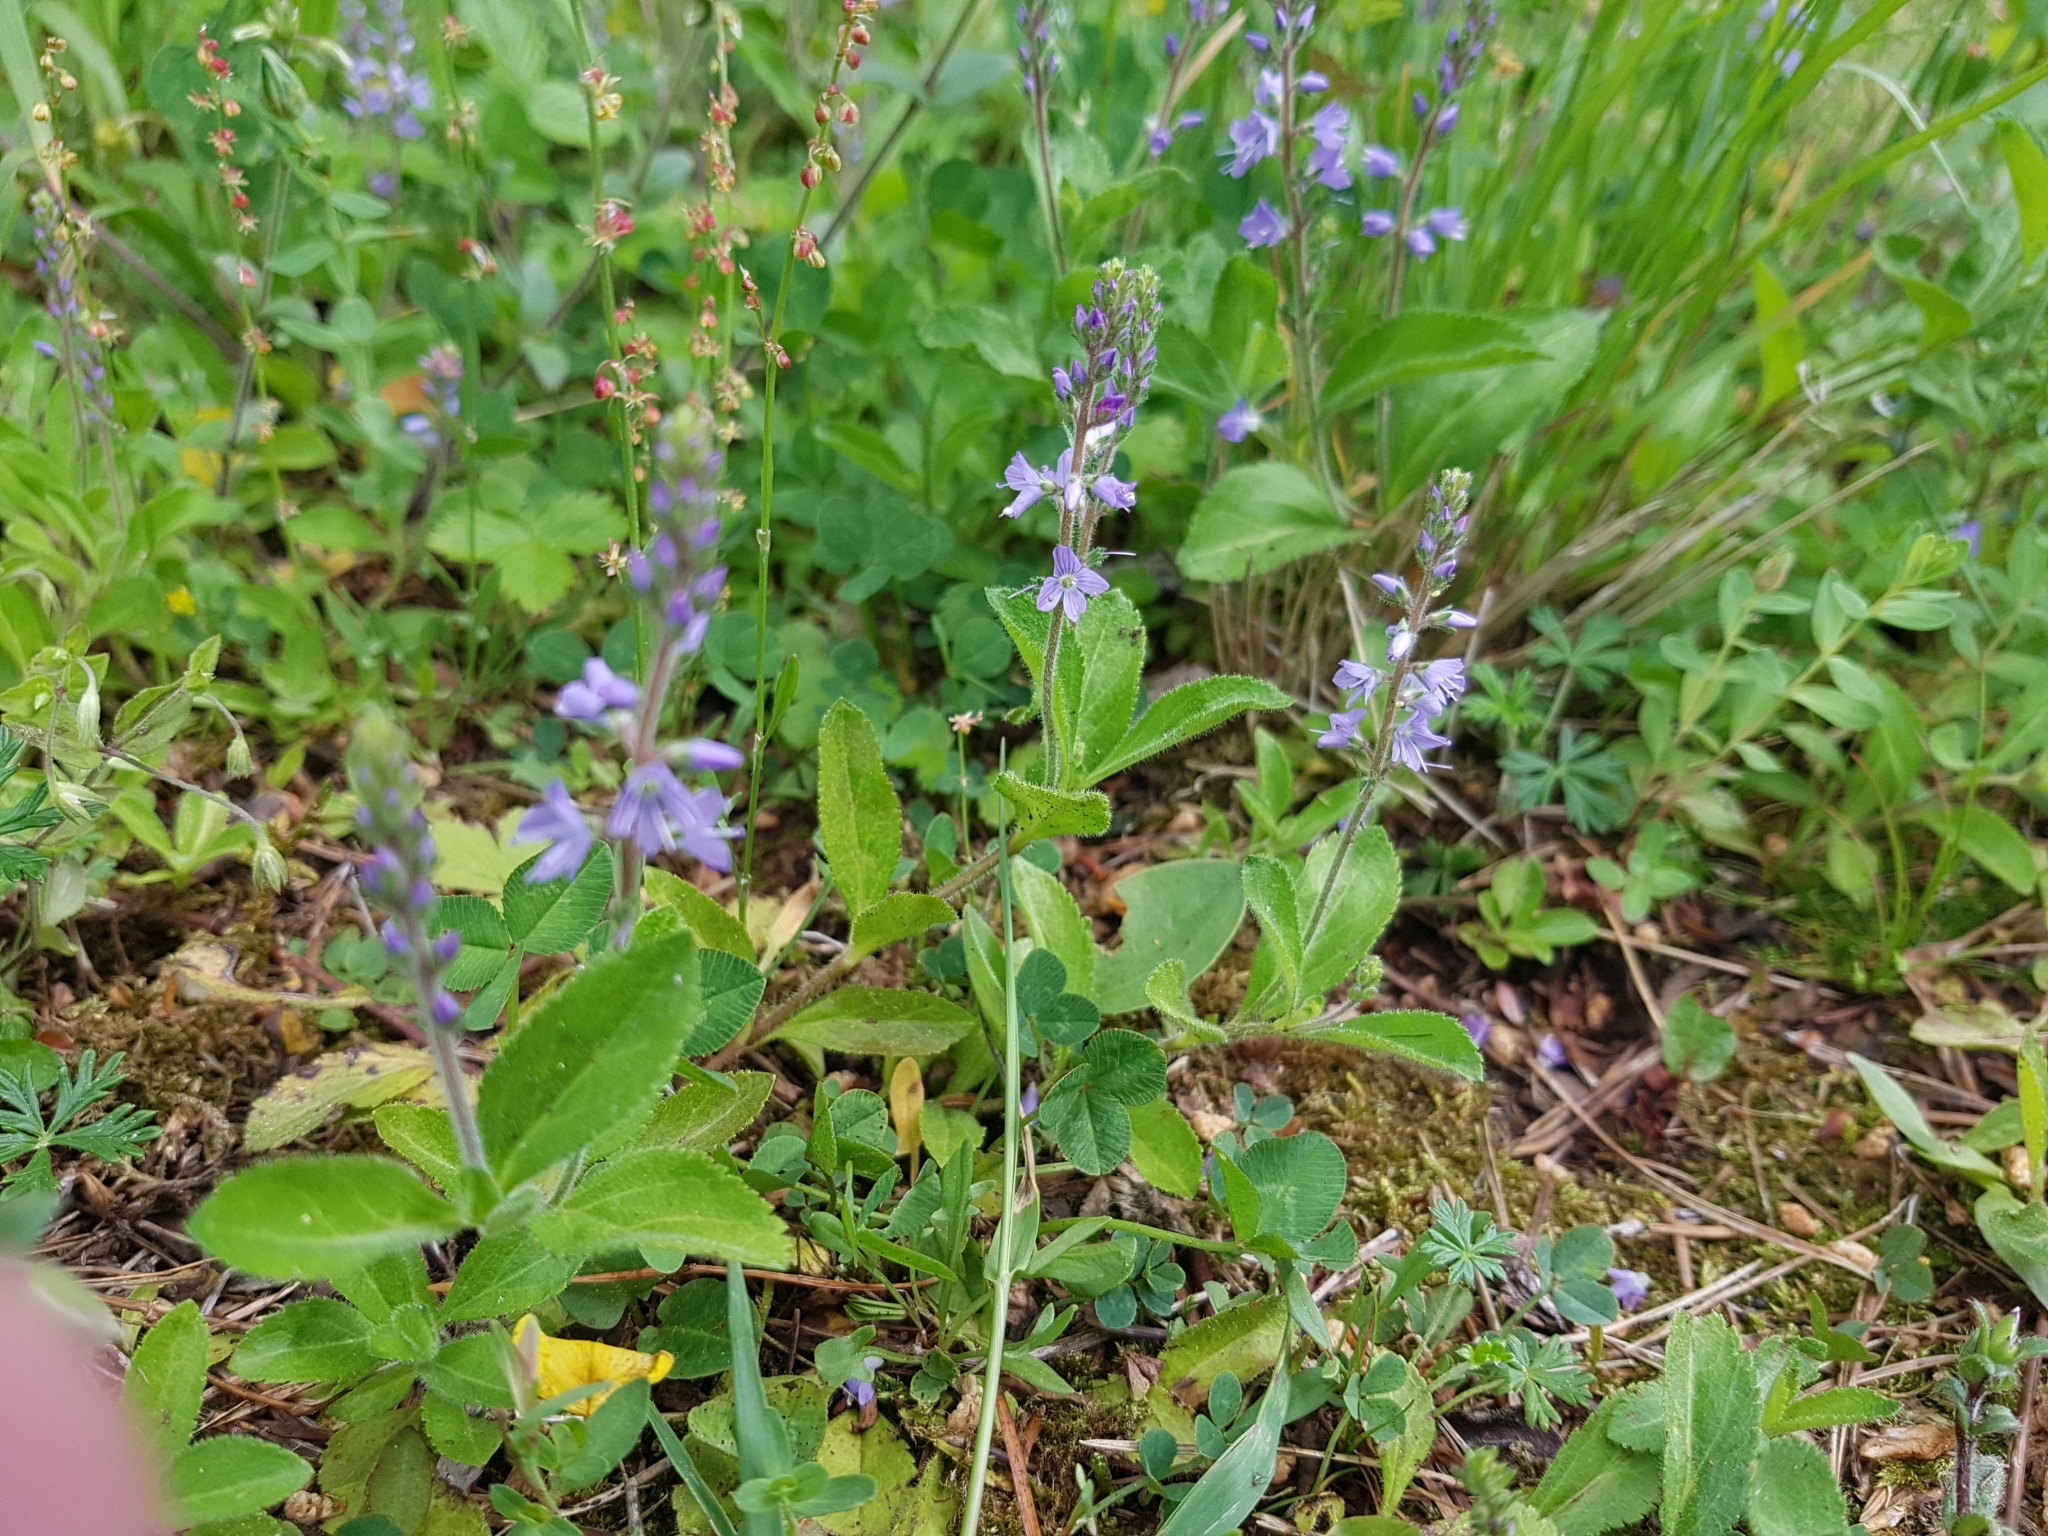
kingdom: Plantae
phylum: Tracheophyta
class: Magnoliopsida
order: Lamiales
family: Plantaginaceae
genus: Veronica
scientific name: Veronica officinalis
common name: Common speedwell
